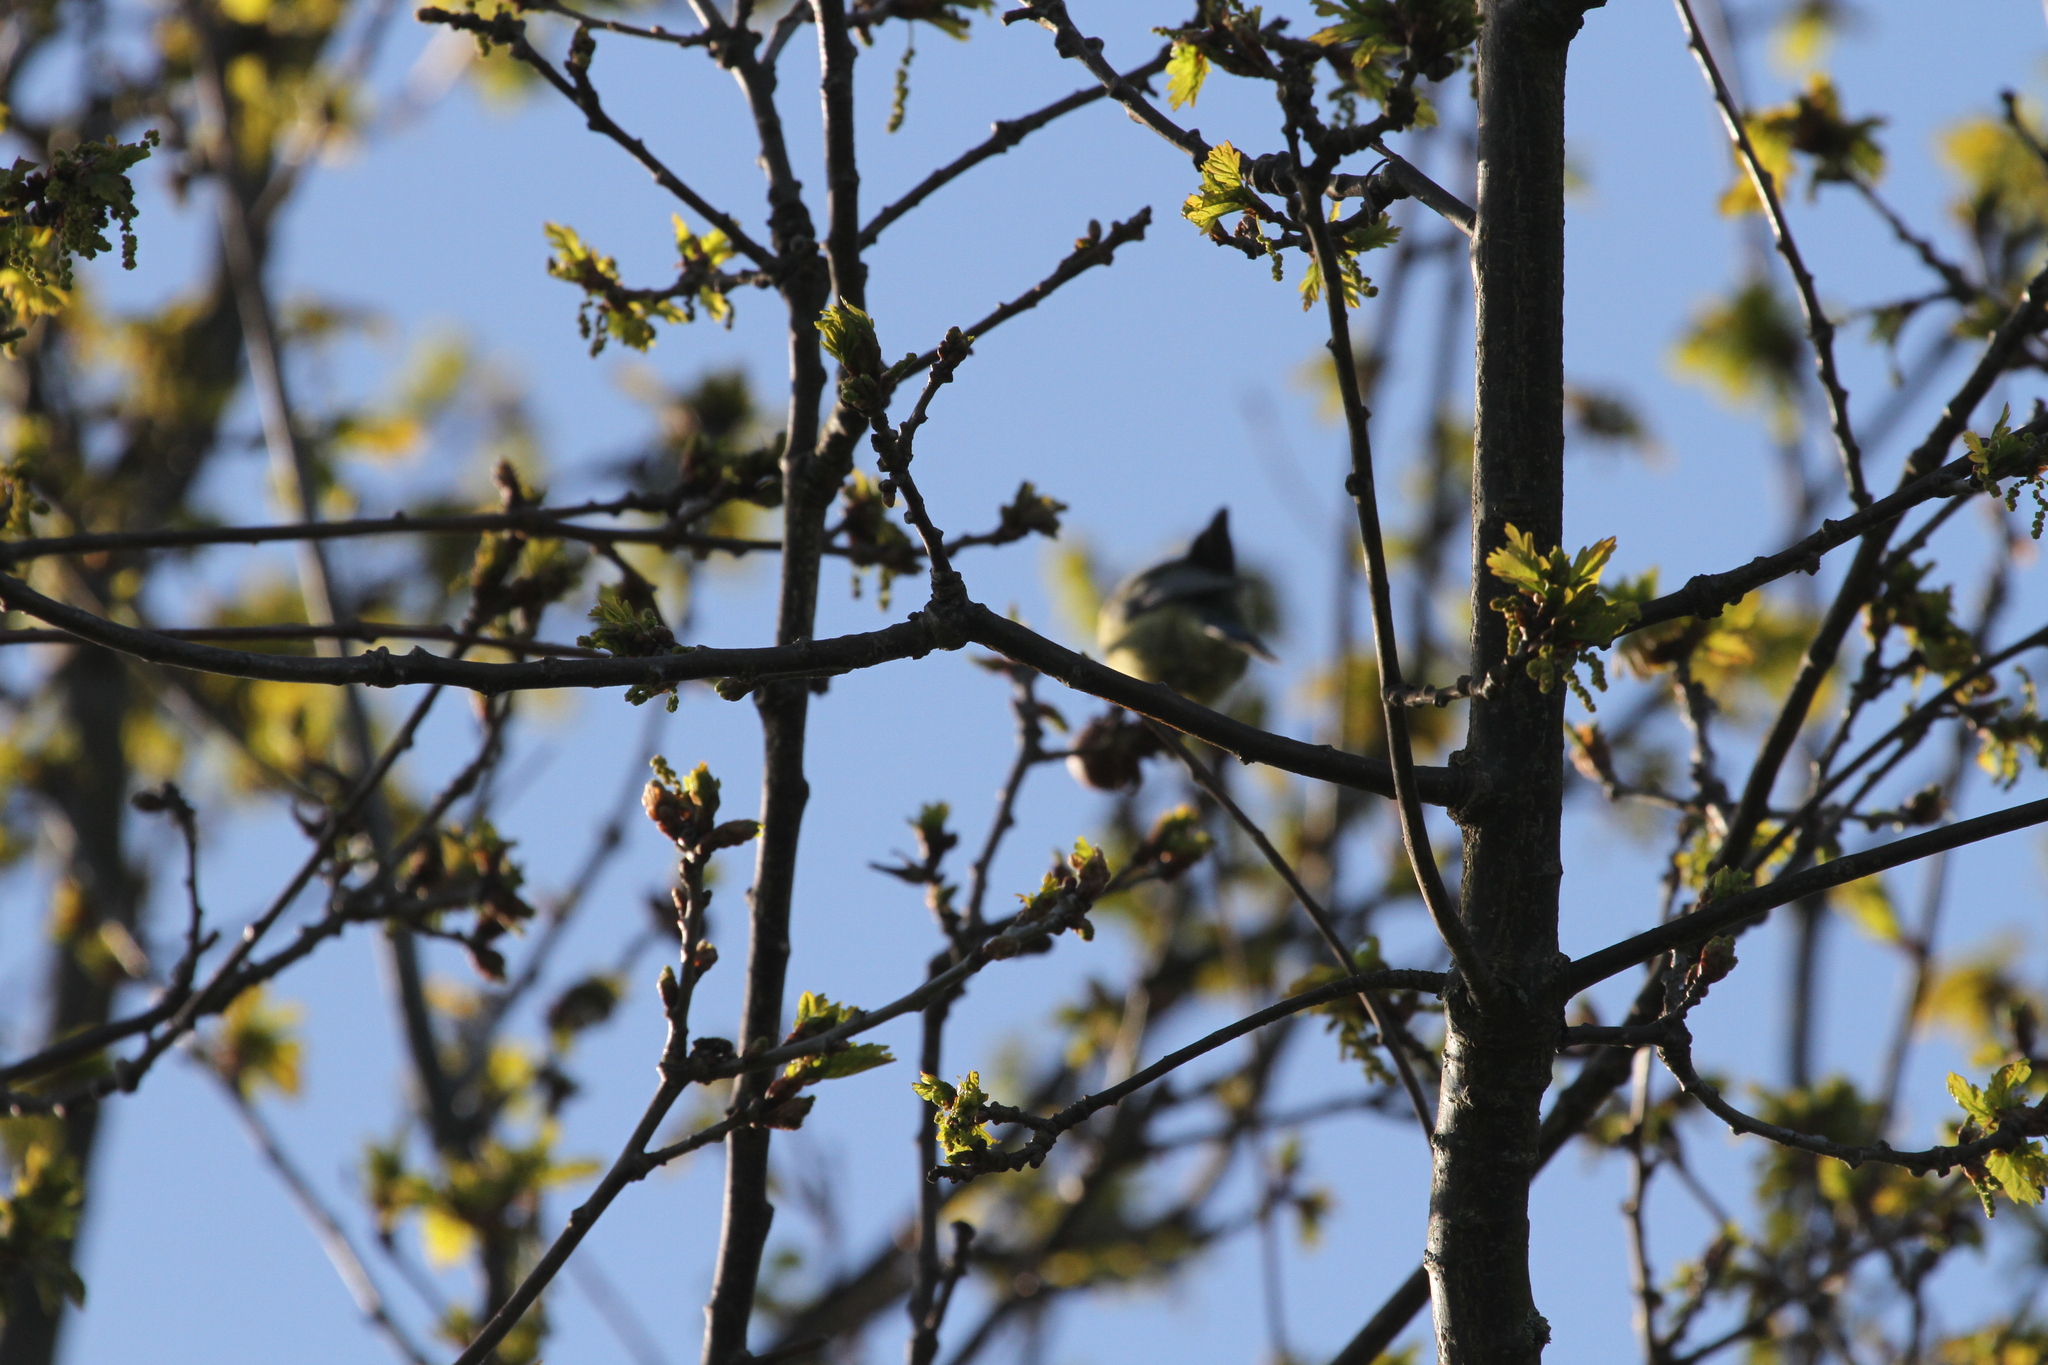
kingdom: Animalia
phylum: Chordata
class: Aves
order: Passeriformes
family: Paridae
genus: Cyanistes
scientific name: Cyanistes caeruleus
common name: Eurasian blue tit
